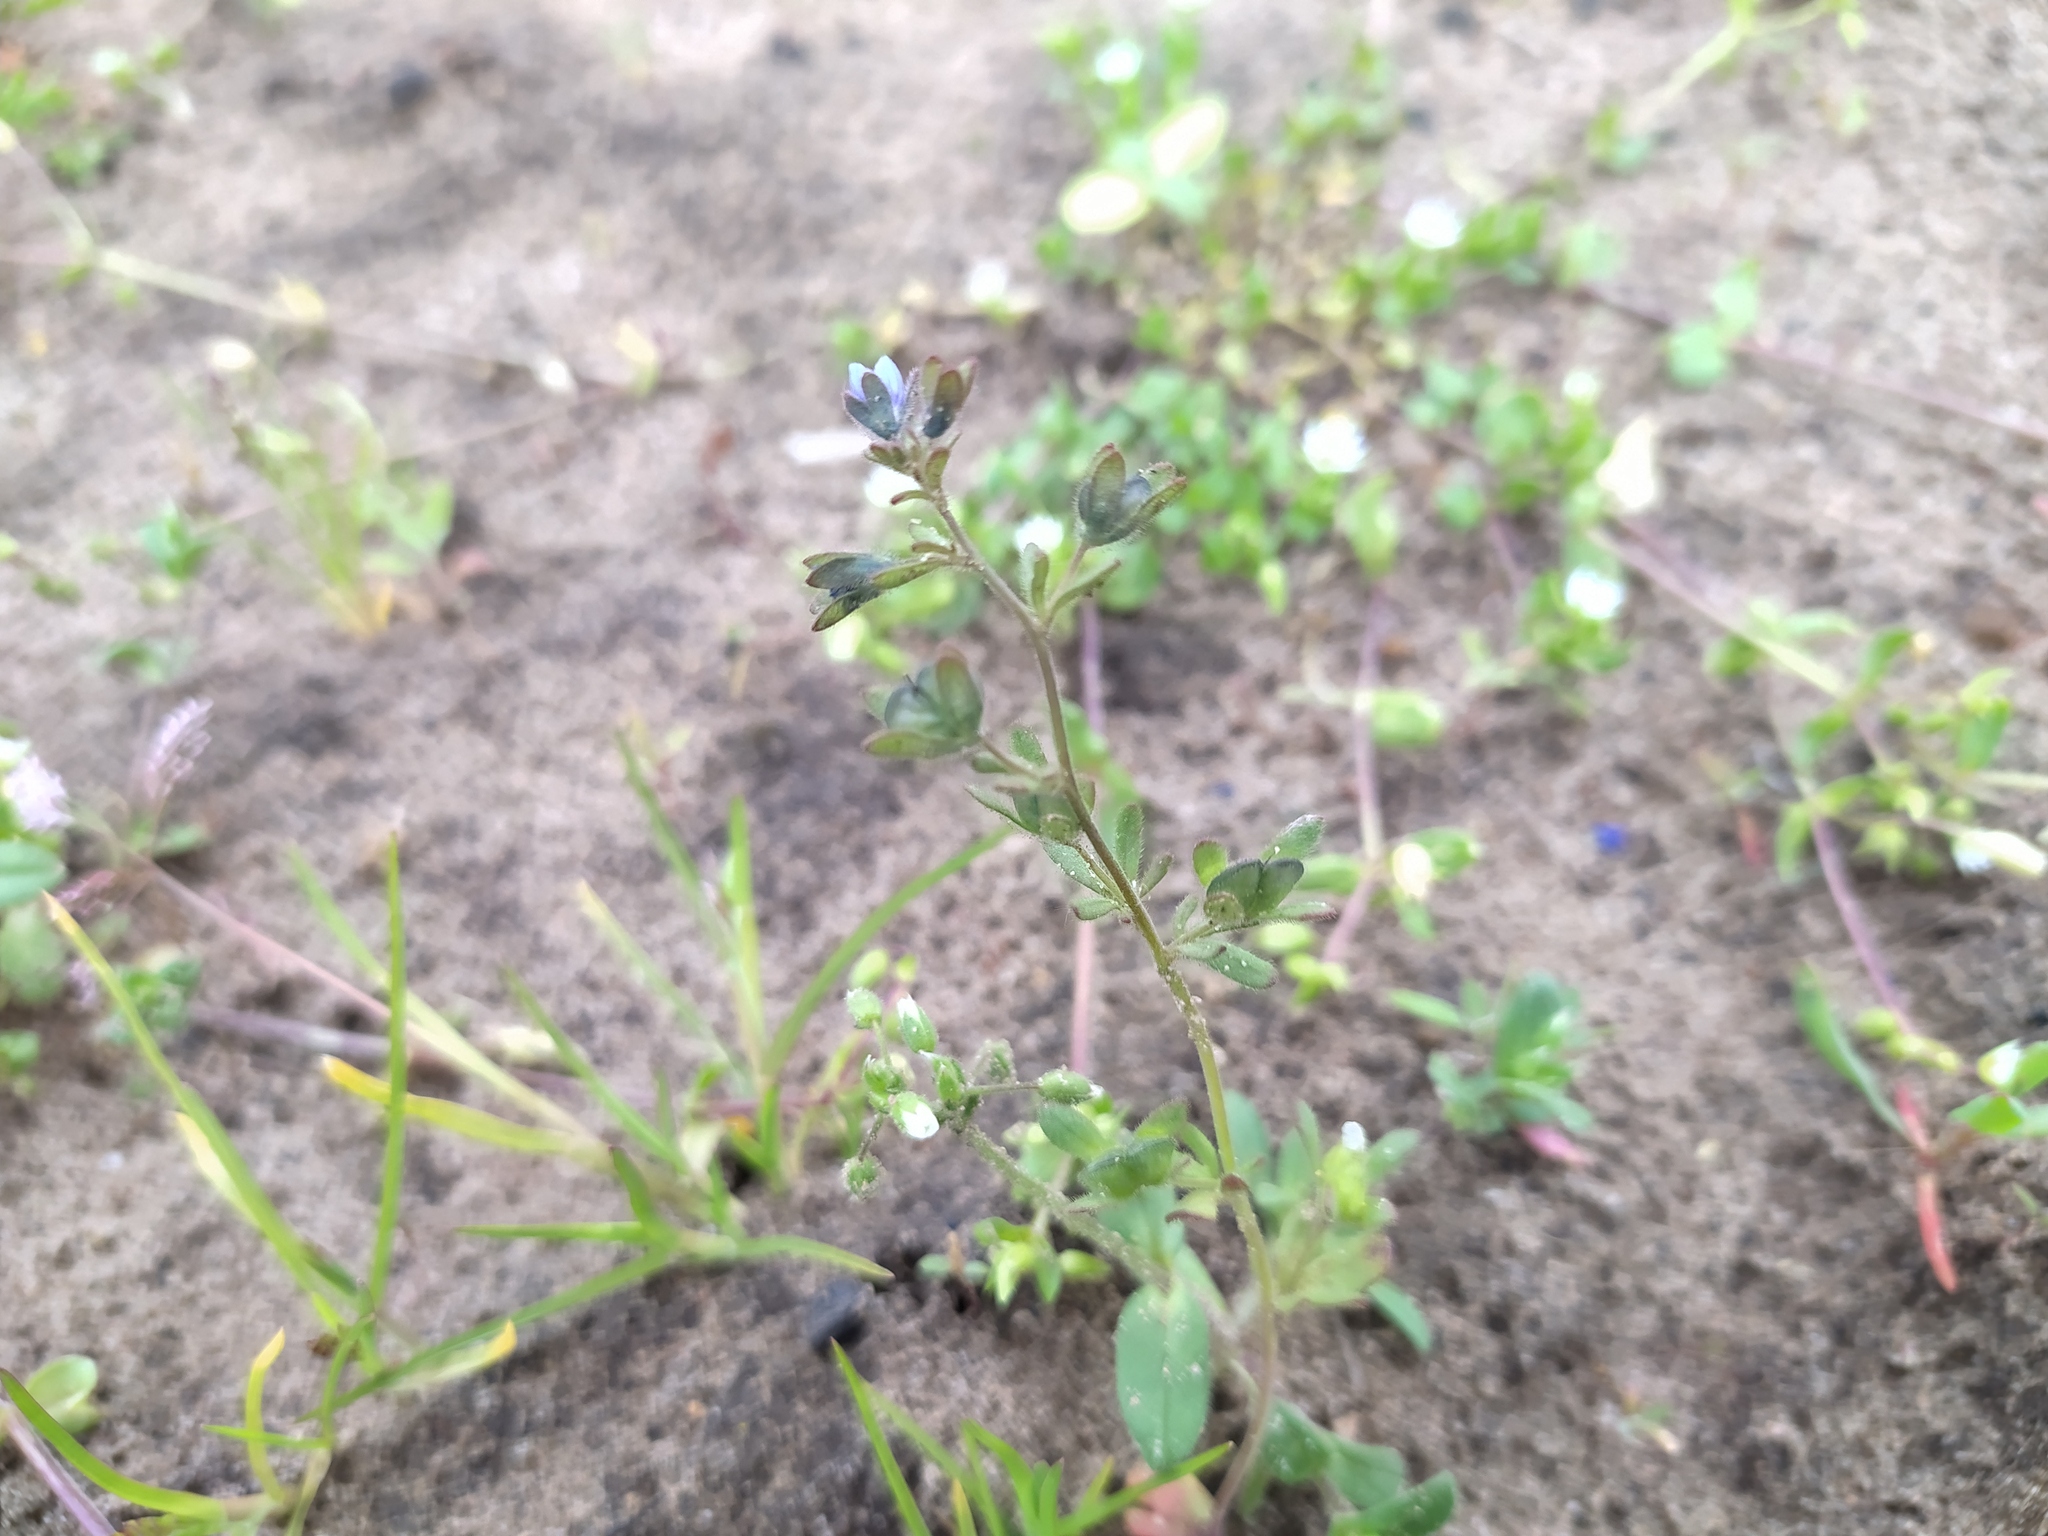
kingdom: Plantae
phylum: Tracheophyta
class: Magnoliopsida
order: Lamiales
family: Plantaginaceae
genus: Veronica
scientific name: Veronica triphyllos
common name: Fingered speedwell
